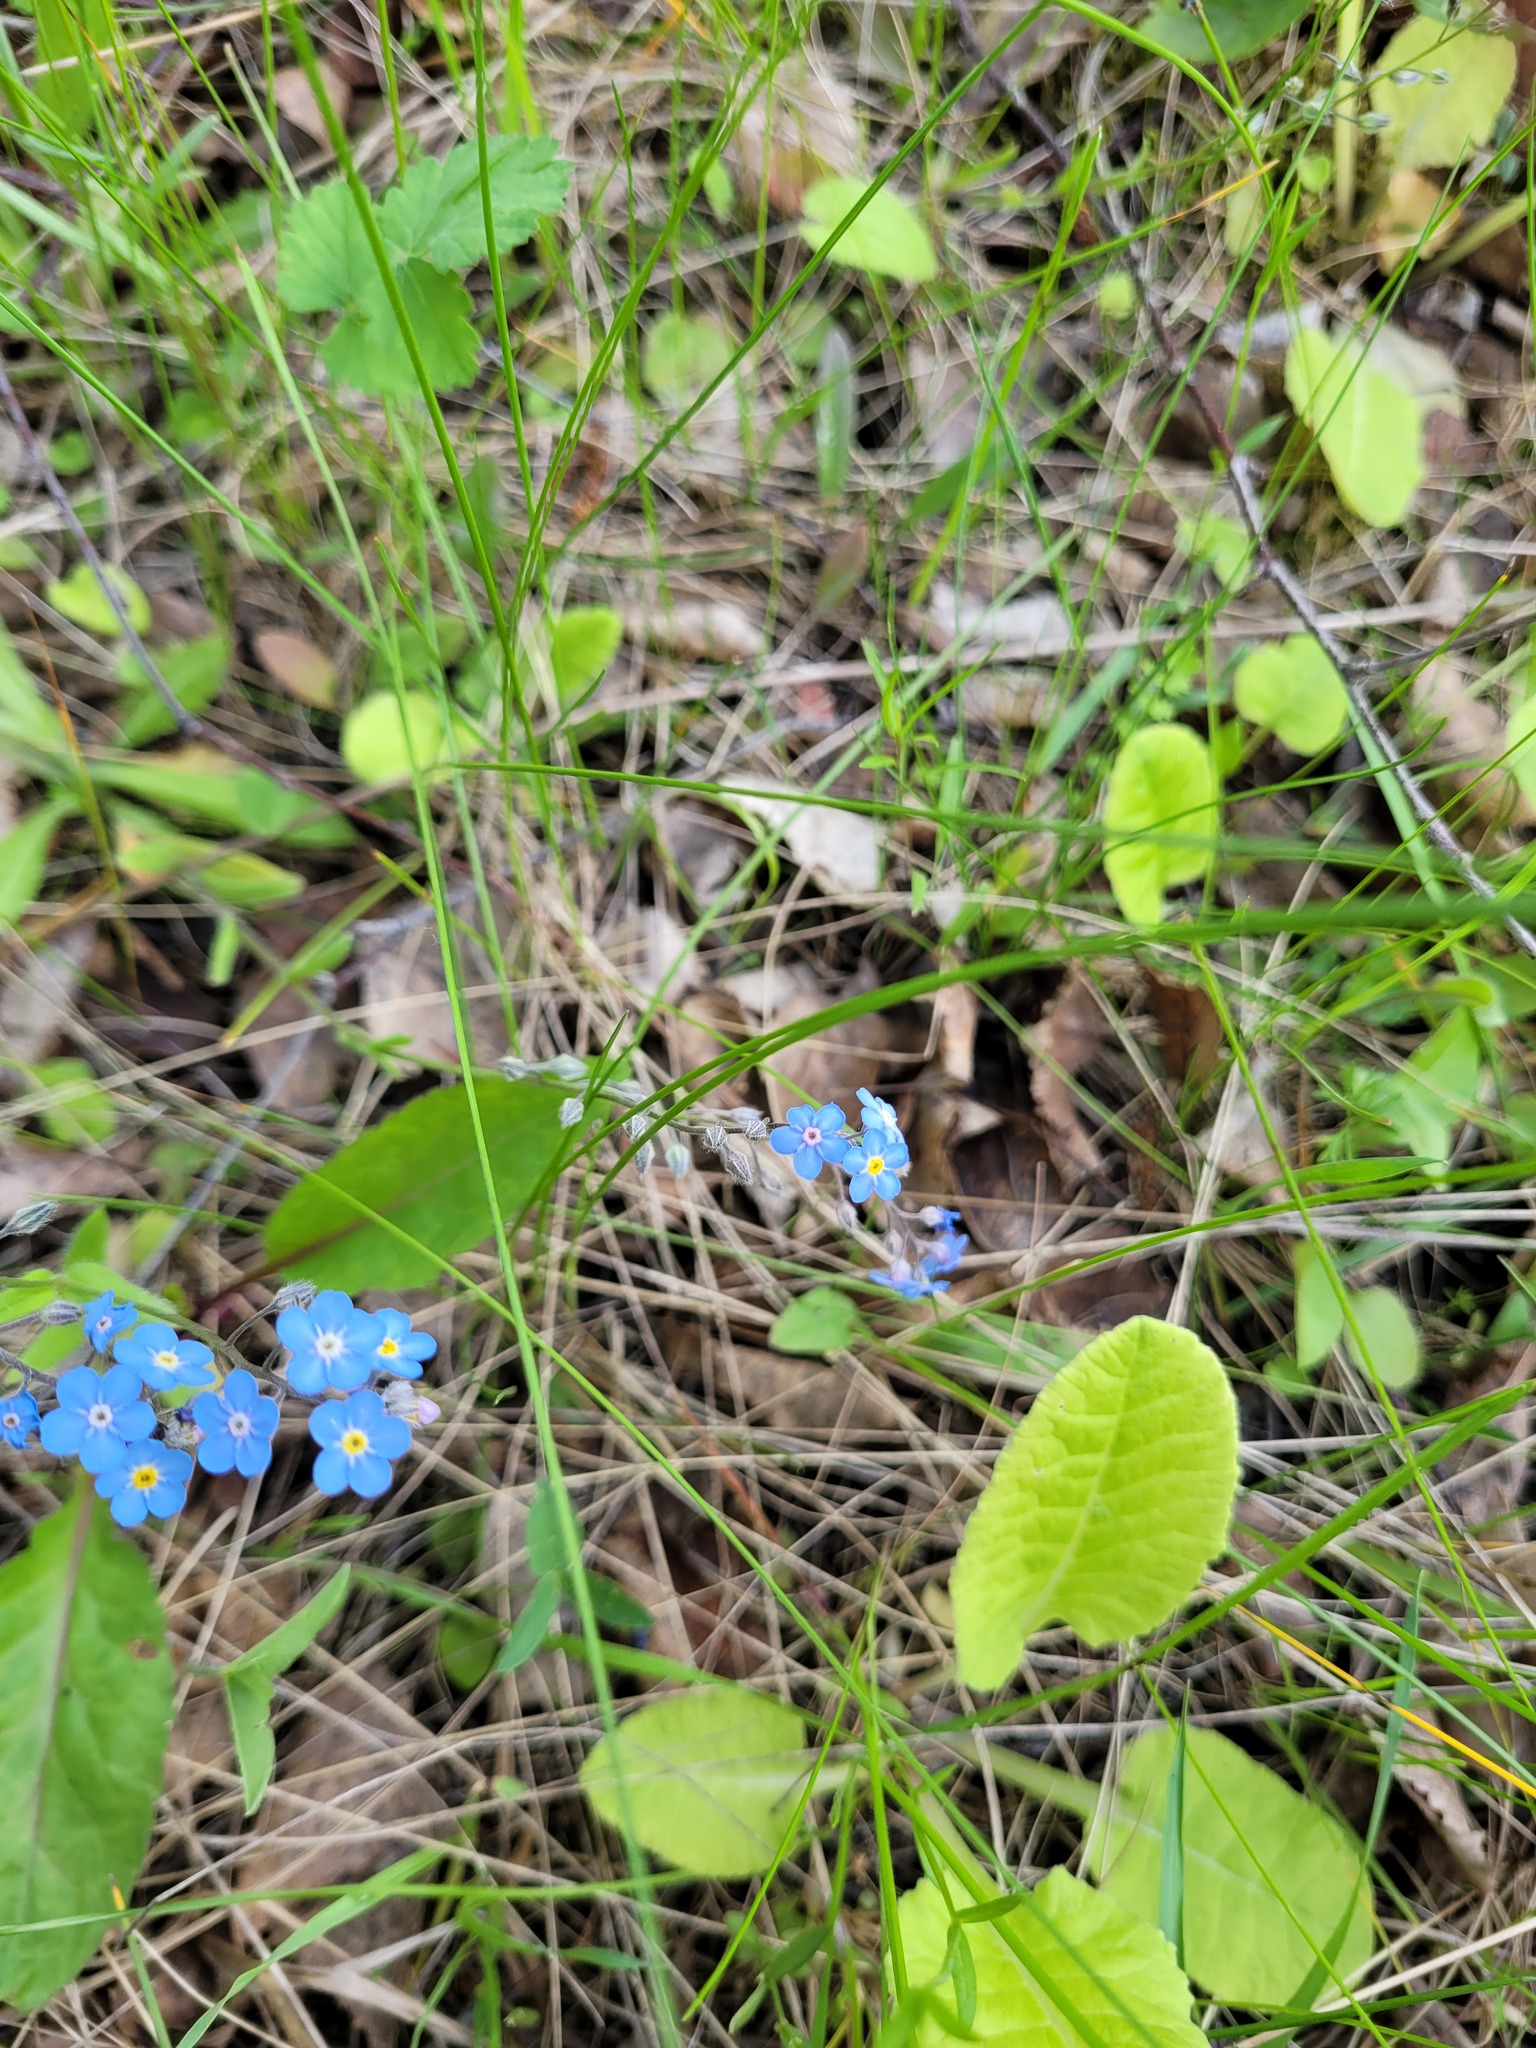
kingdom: Plantae
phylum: Tracheophyta
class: Magnoliopsida
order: Boraginales
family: Boraginaceae
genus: Myosotis
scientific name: Myosotis alpestris
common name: Alpine forget-me-not
